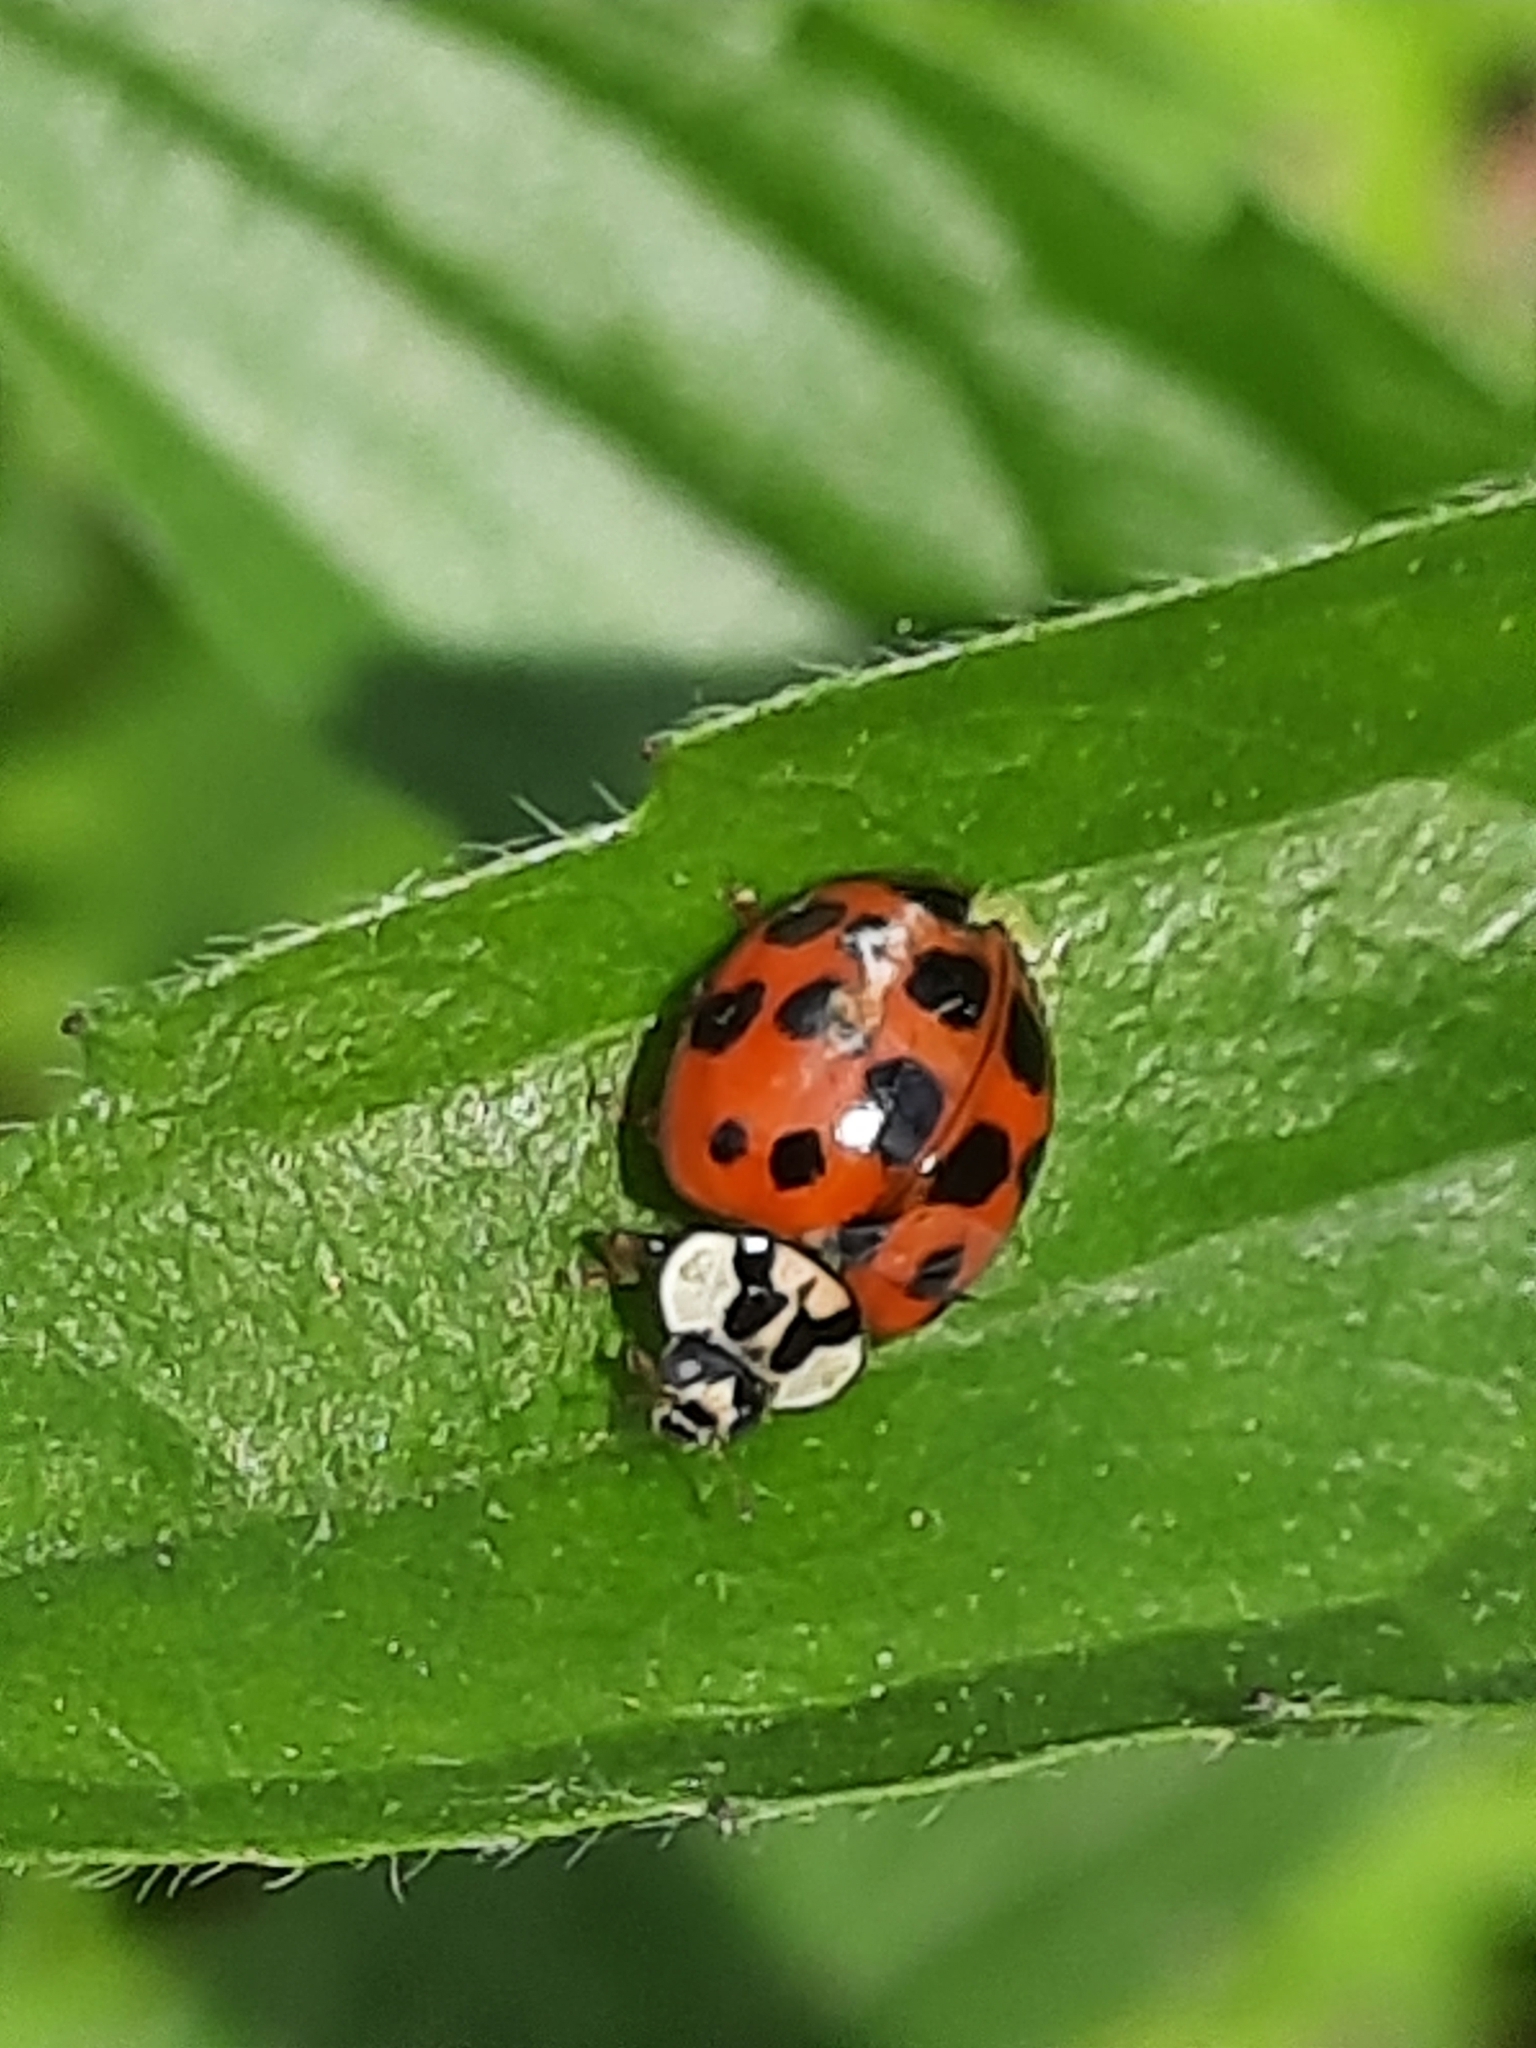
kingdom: Animalia
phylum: Arthropoda
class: Insecta
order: Coleoptera
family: Coccinellidae
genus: Harmonia
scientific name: Harmonia axyridis
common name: Harlequin ladybird
